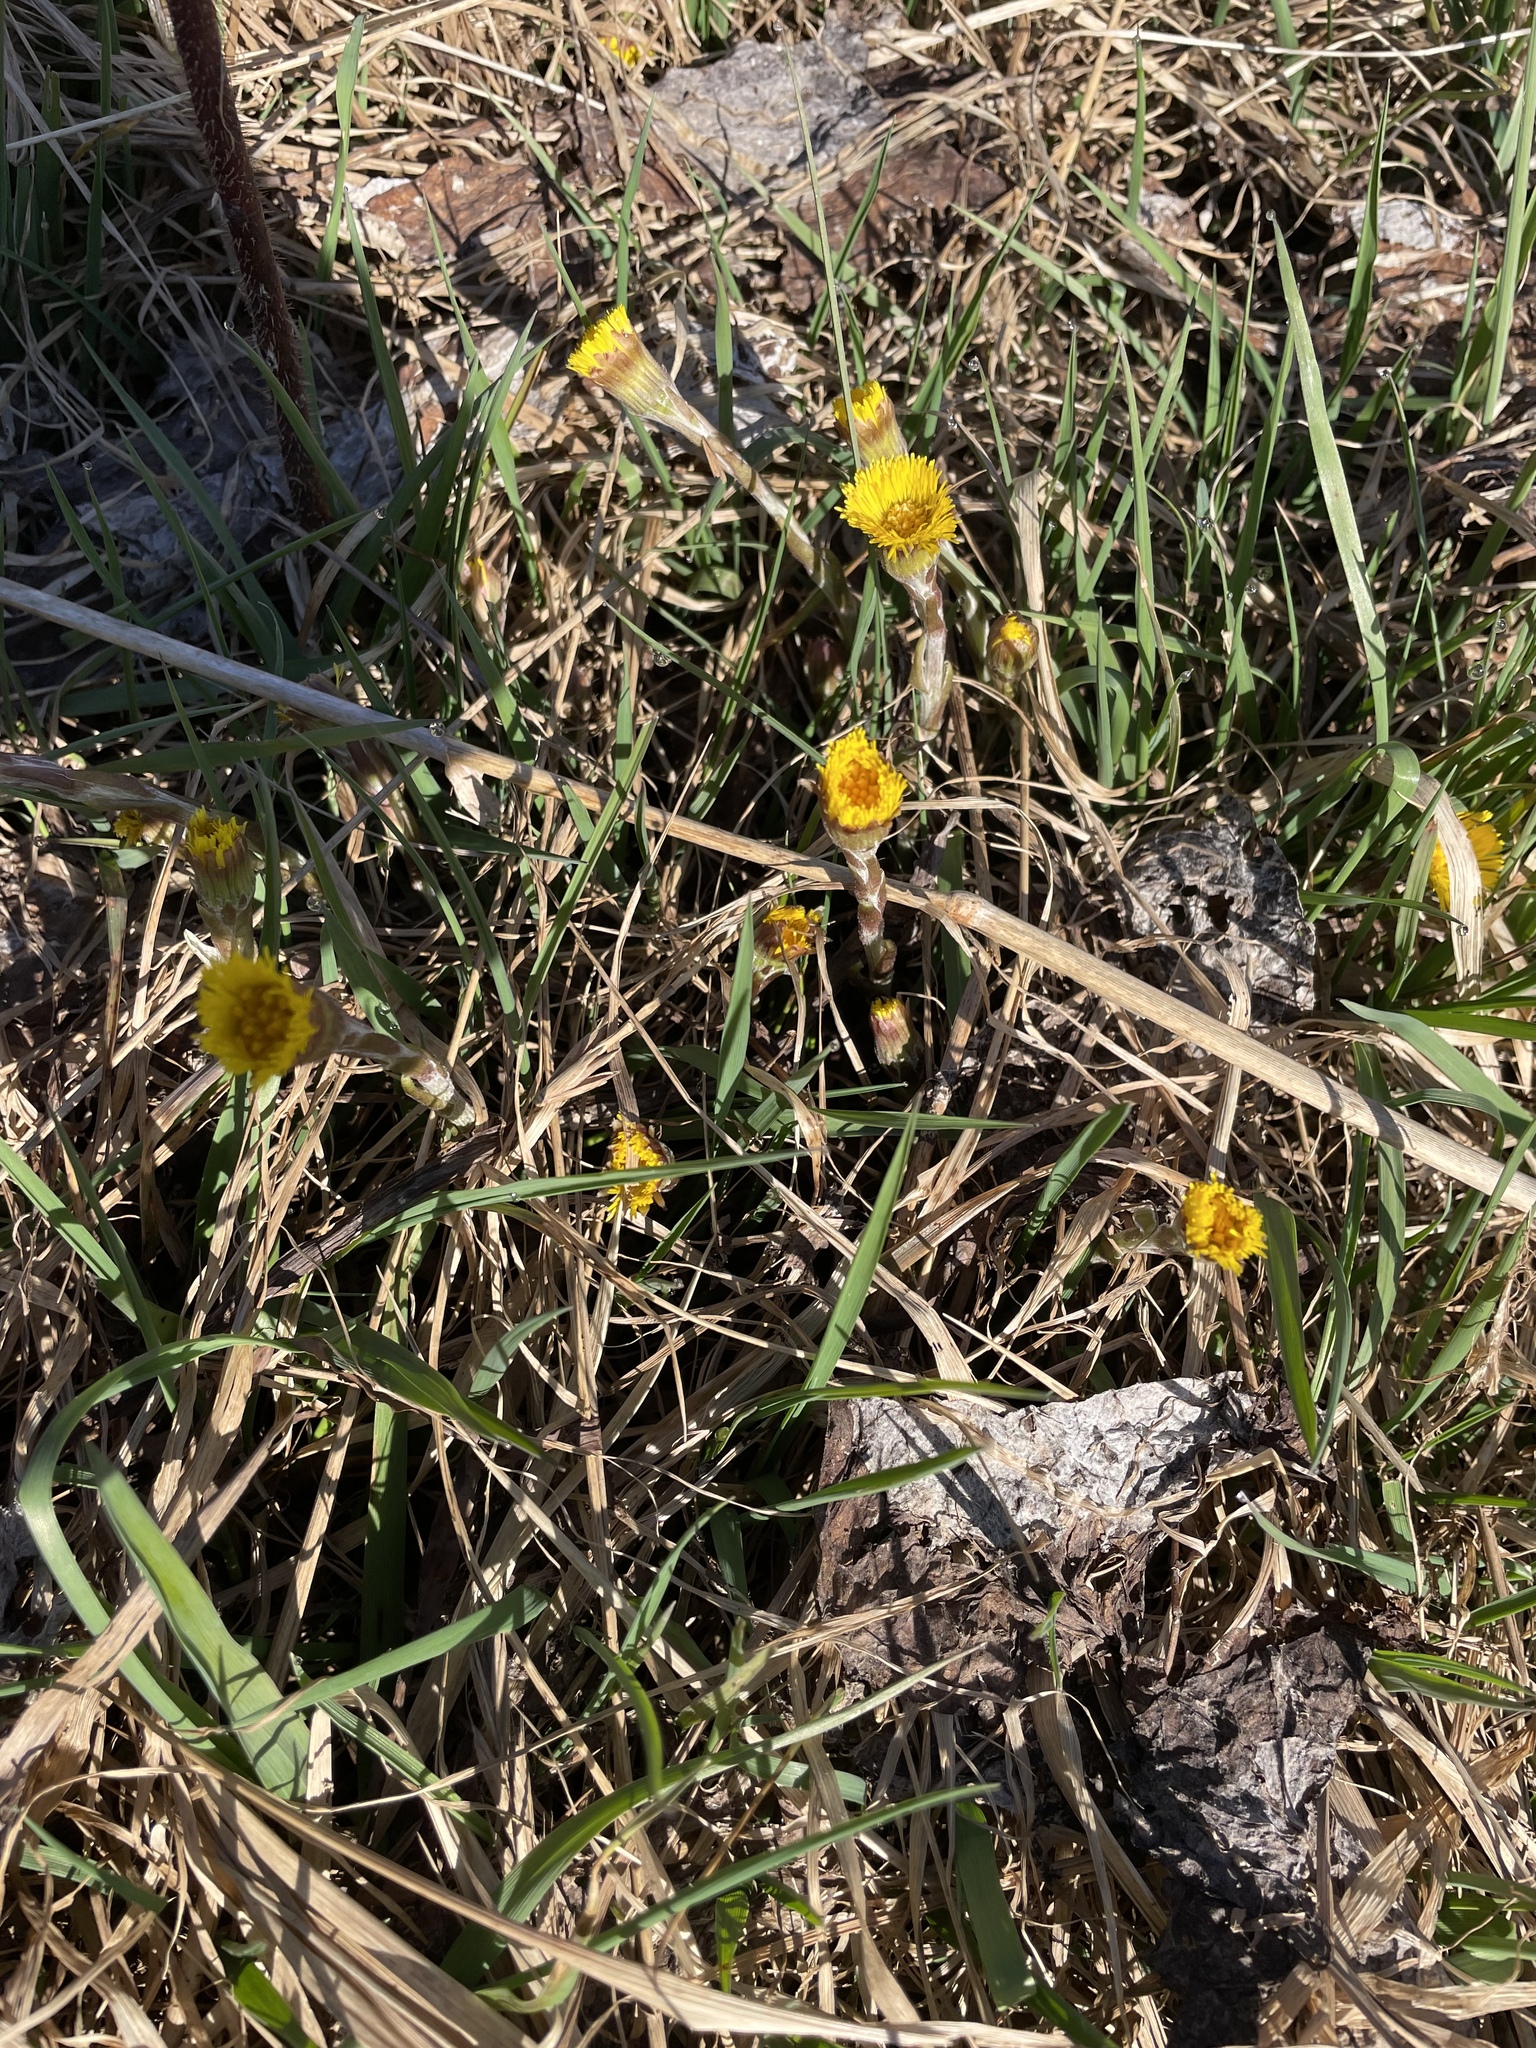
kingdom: Plantae
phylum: Tracheophyta
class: Magnoliopsida
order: Asterales
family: Asteraceae
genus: Tussilago
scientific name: Tussilago farfara
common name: Coltsfoot
